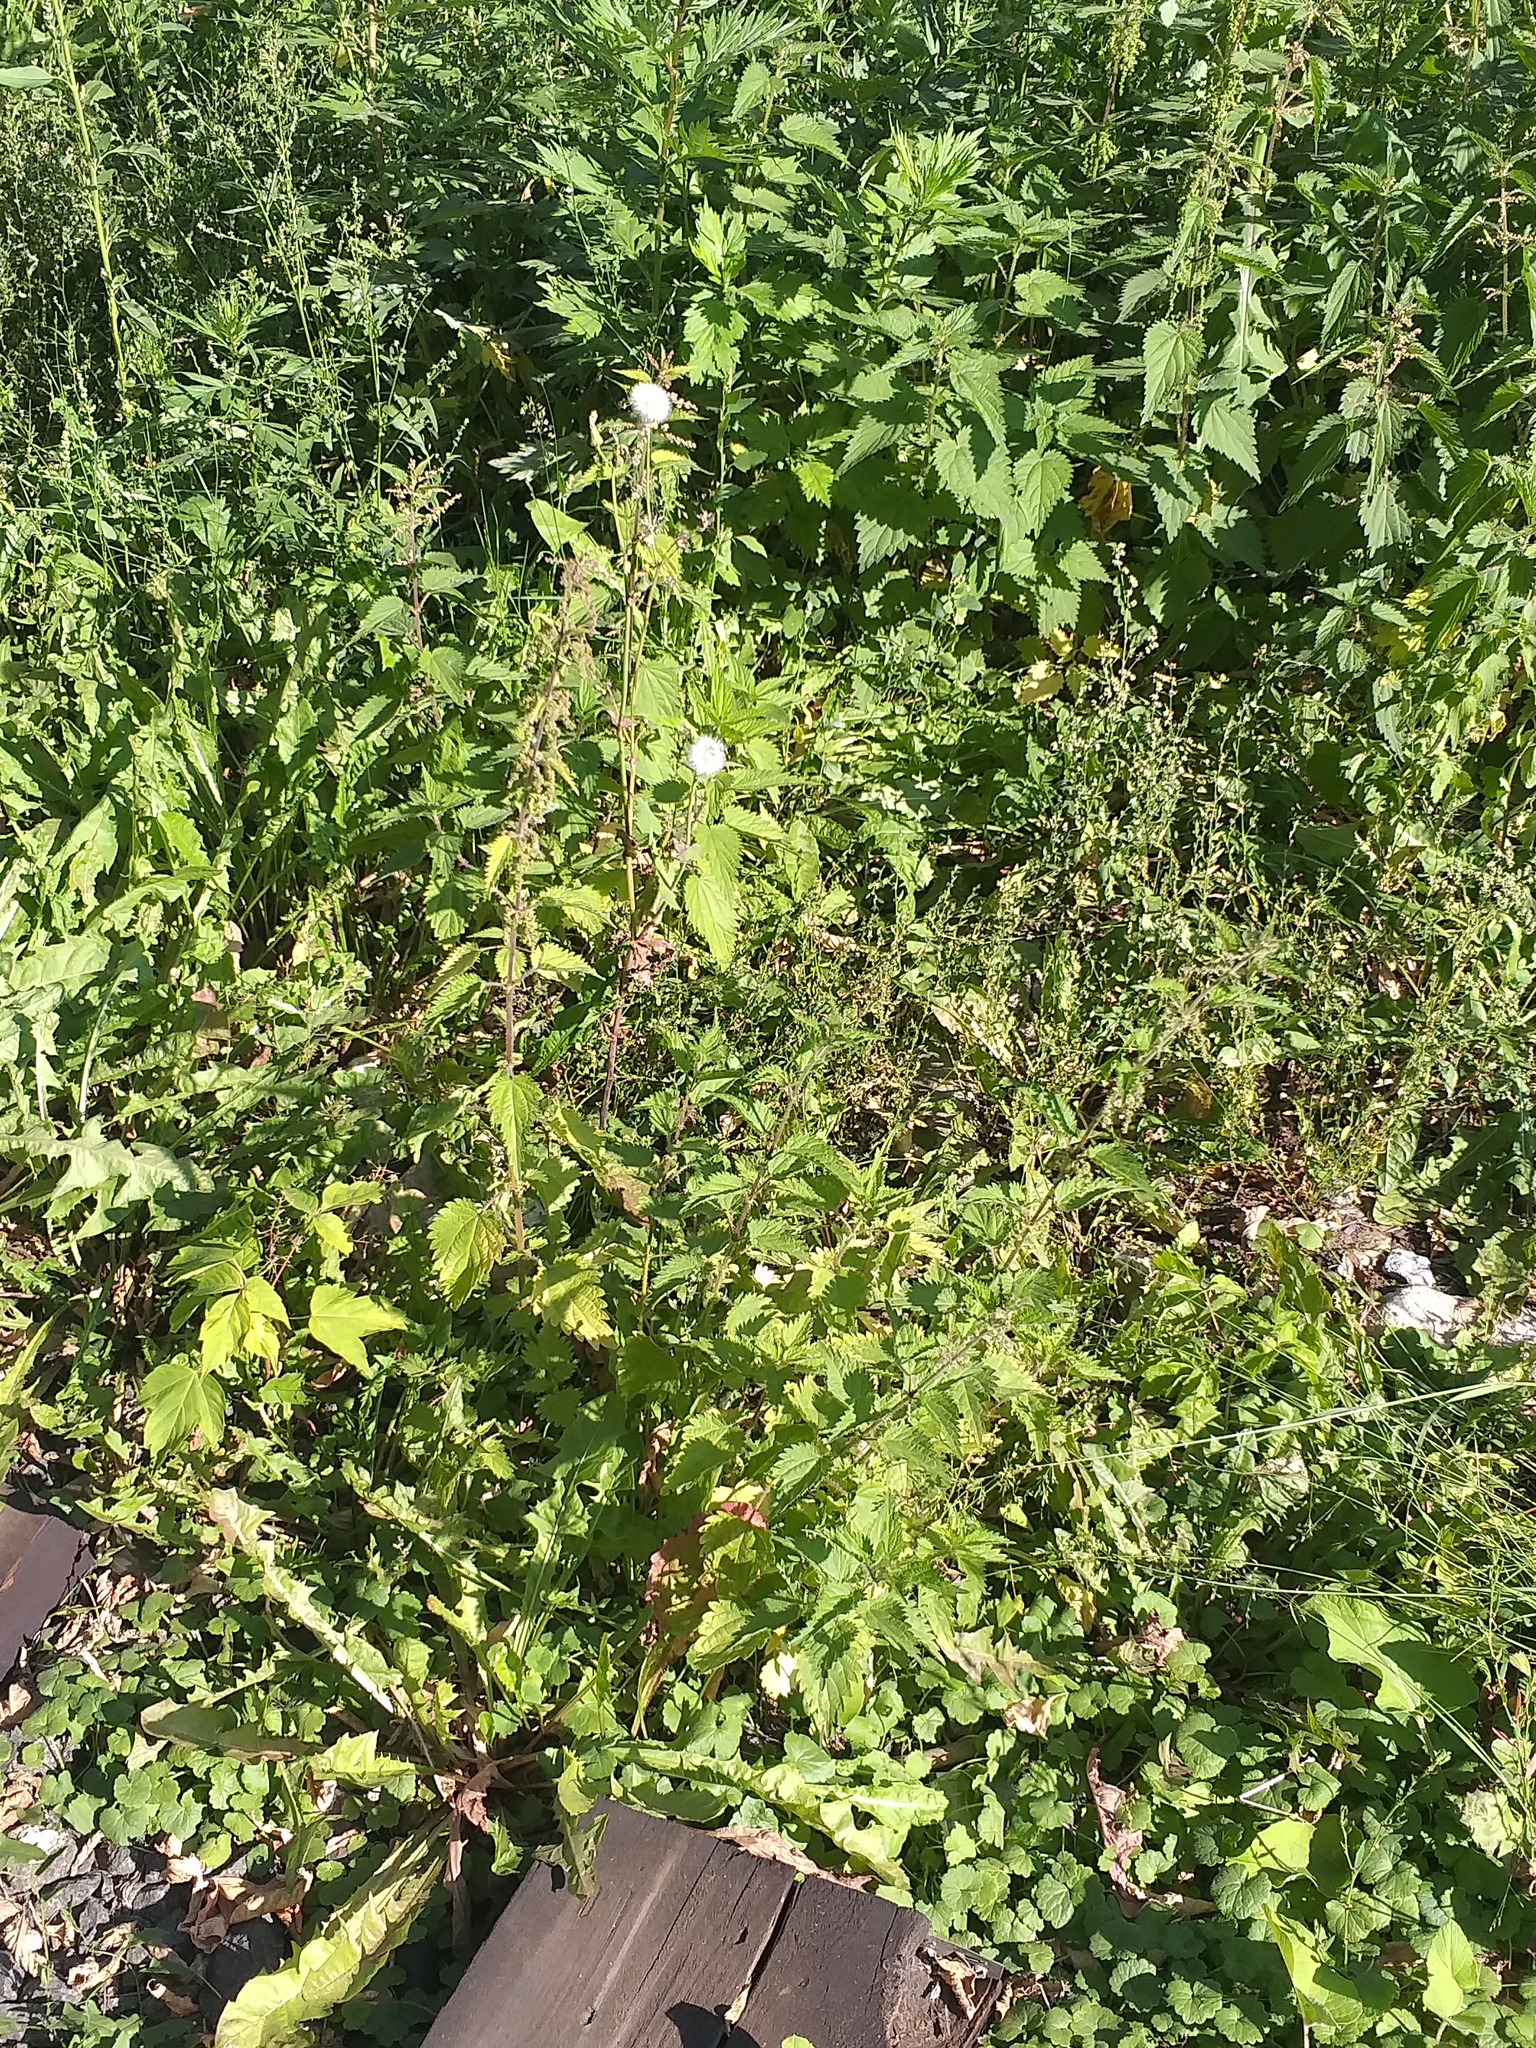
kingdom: Plantae
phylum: Tracheophyta
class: Magnoliopsida
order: Rosales
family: Urticaceae
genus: Urtica
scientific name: Urtica dioica
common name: Common nettle
